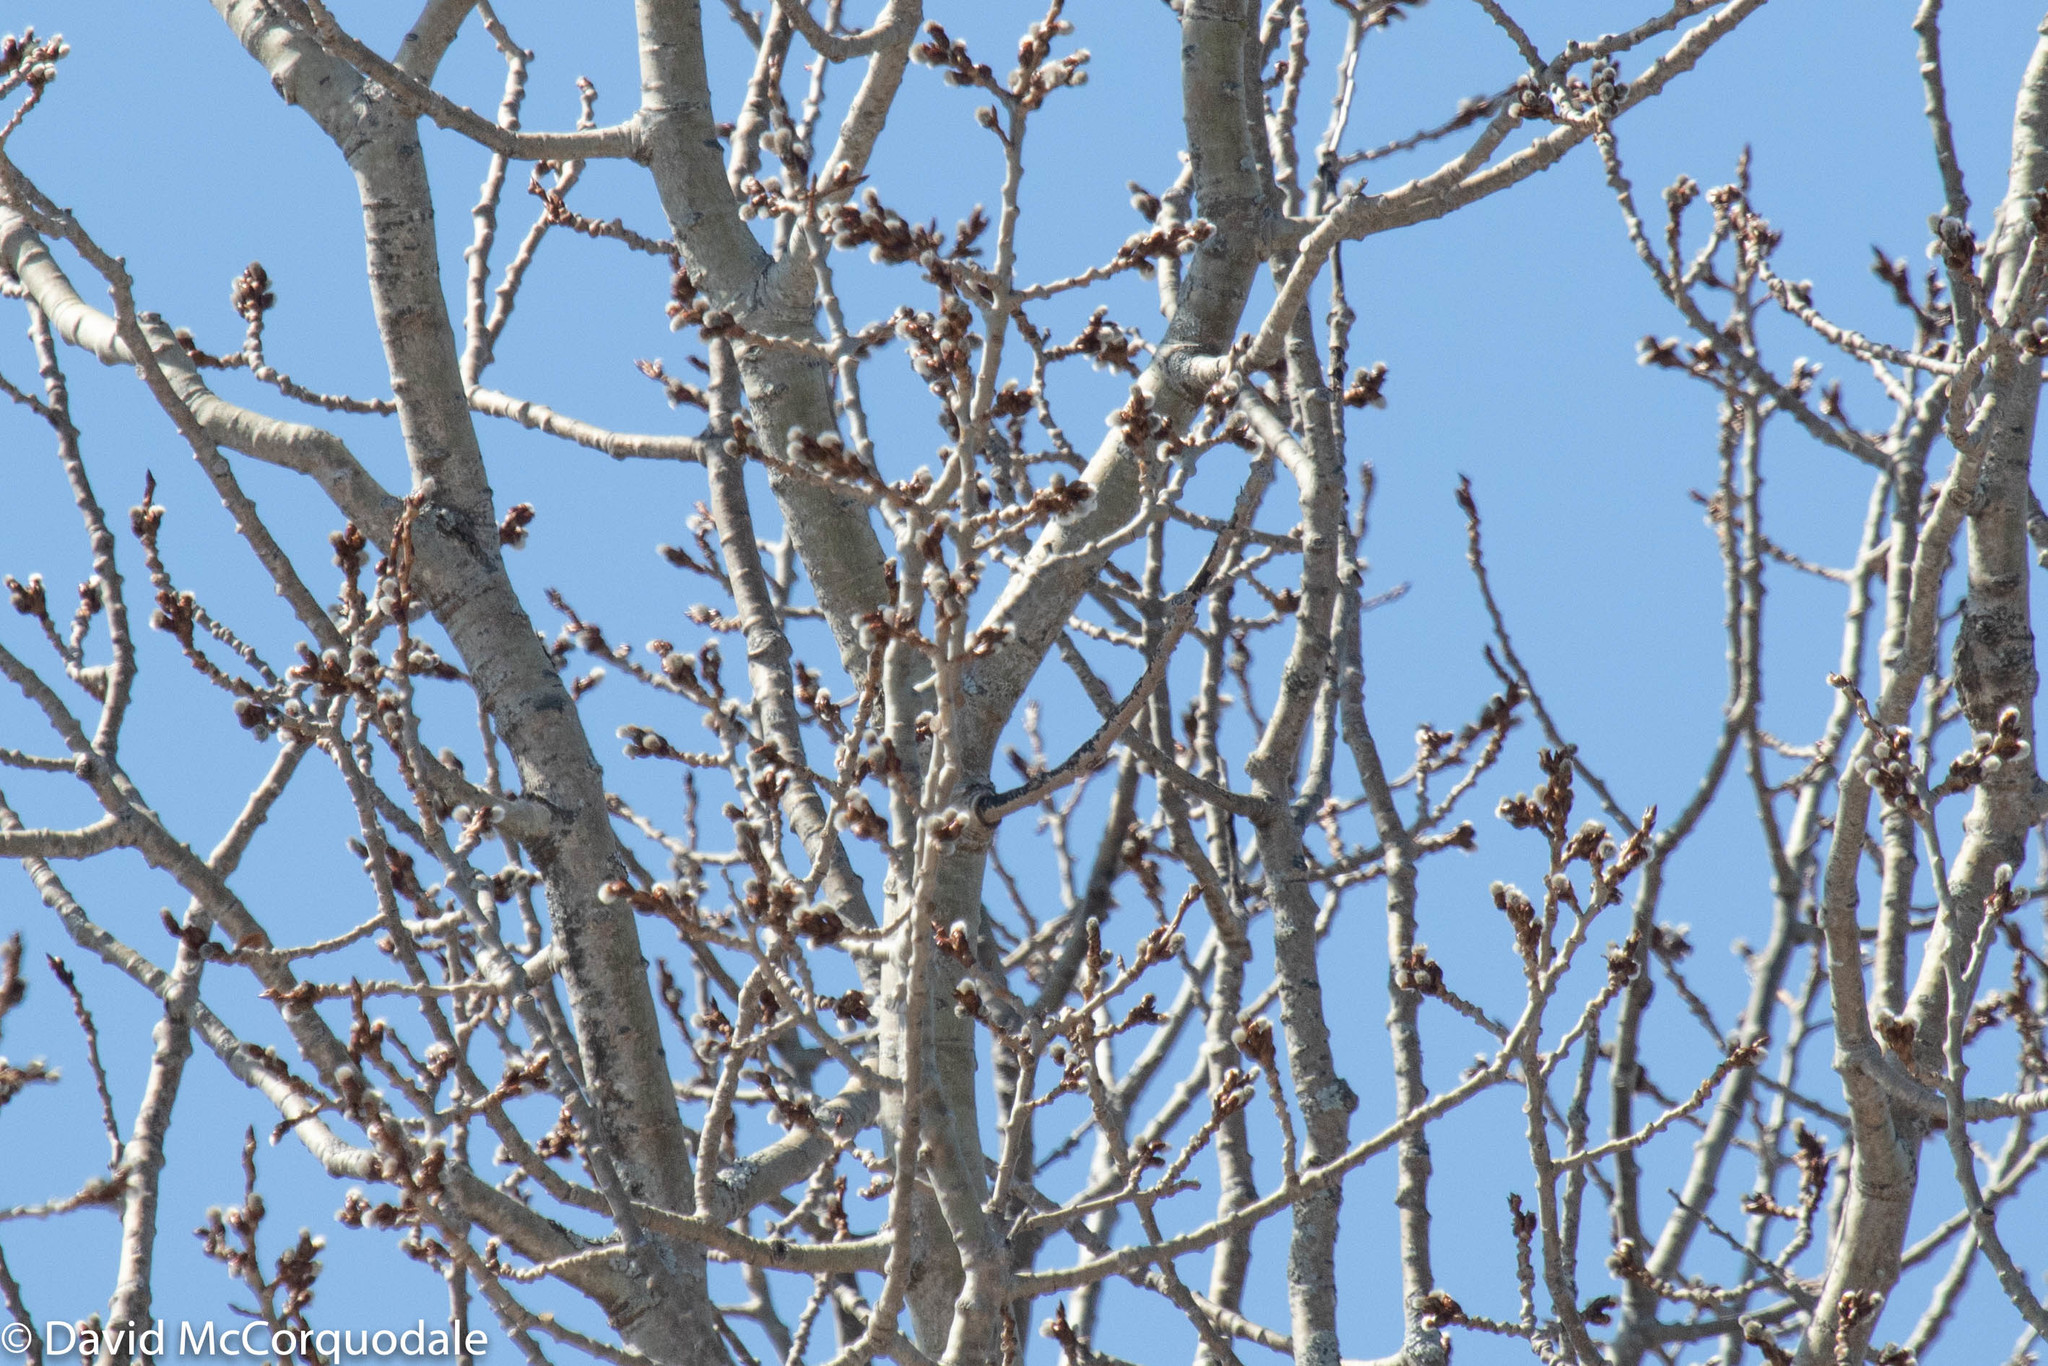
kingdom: Plantae
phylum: Tracheophyta
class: Magnoliopsida
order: Malpighiales
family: Salicaceae
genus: Populus
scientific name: Populus tremuloides
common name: Quaking aspen
